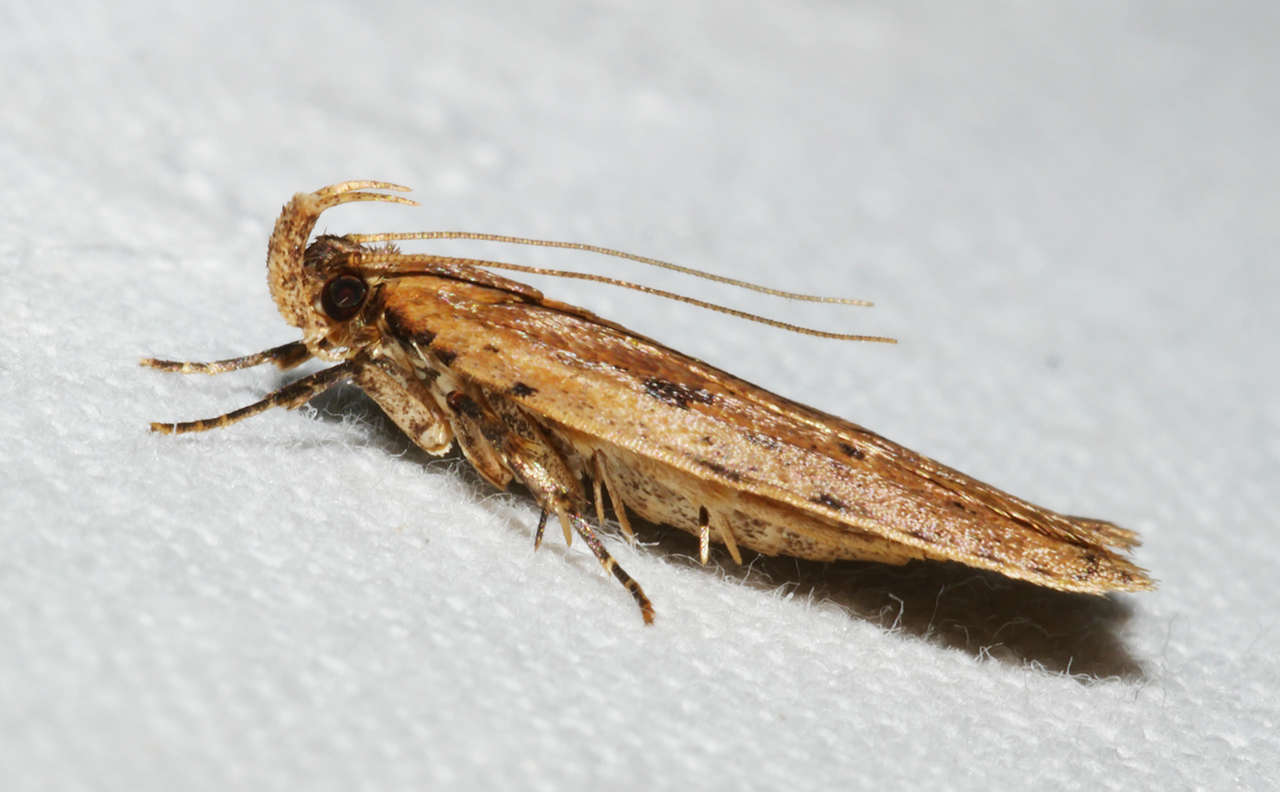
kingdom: Animalia
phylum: Arthropoda
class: Insecta
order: Lepidoptera
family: Gelechiidae
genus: Ardozyga
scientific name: Ardozyga loemias
